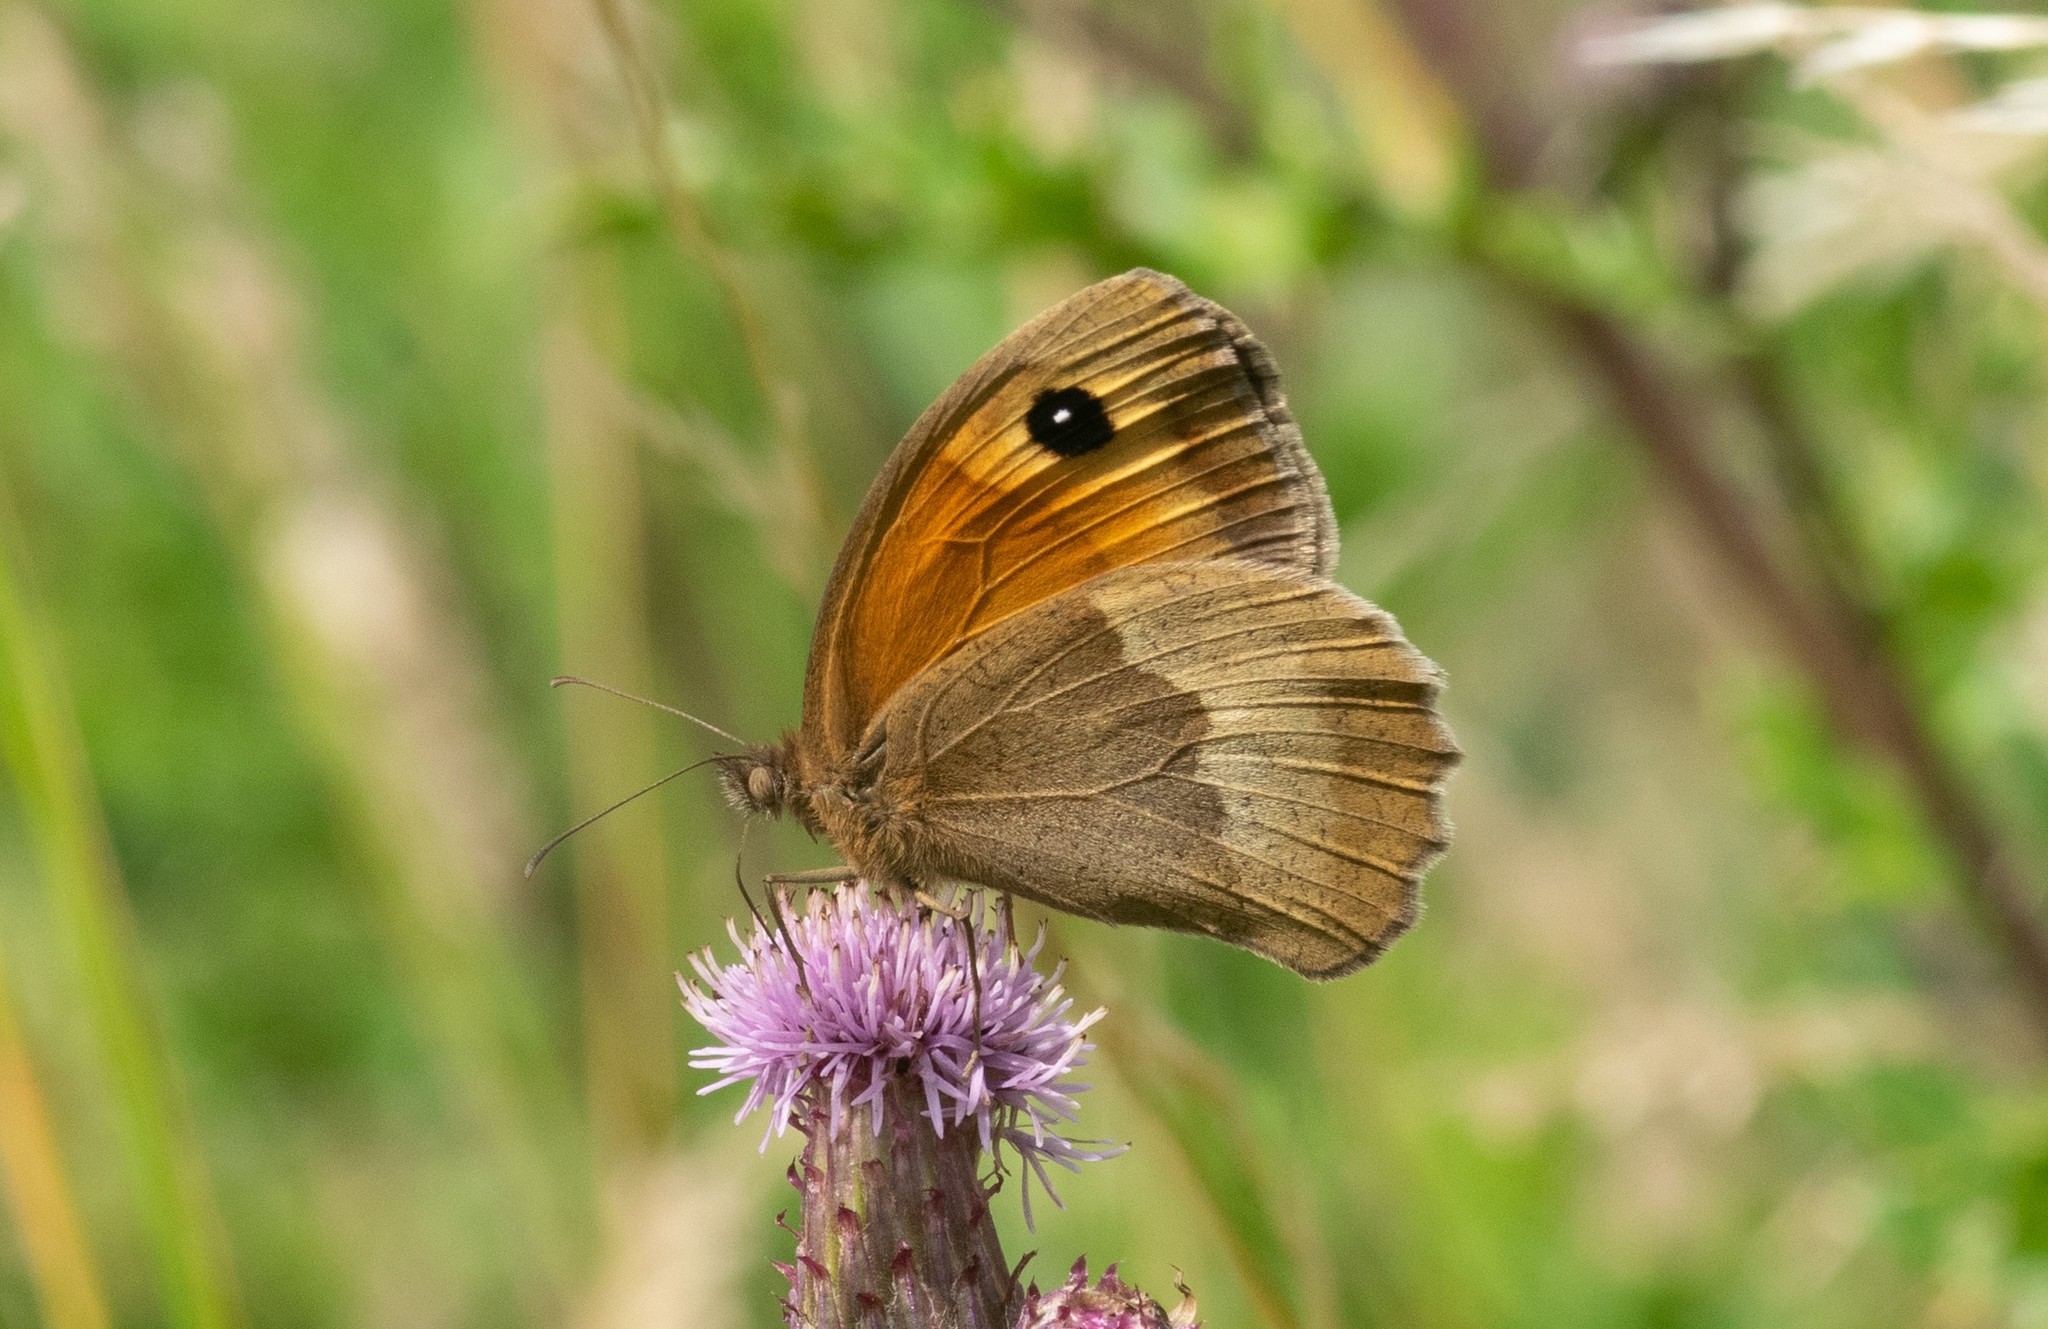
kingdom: Animalia
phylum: Arthropoda
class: Insecta
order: Lepidoptera
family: Nymphalidae
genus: Maniola
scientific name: Maniola jurtina
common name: Meadow brown
